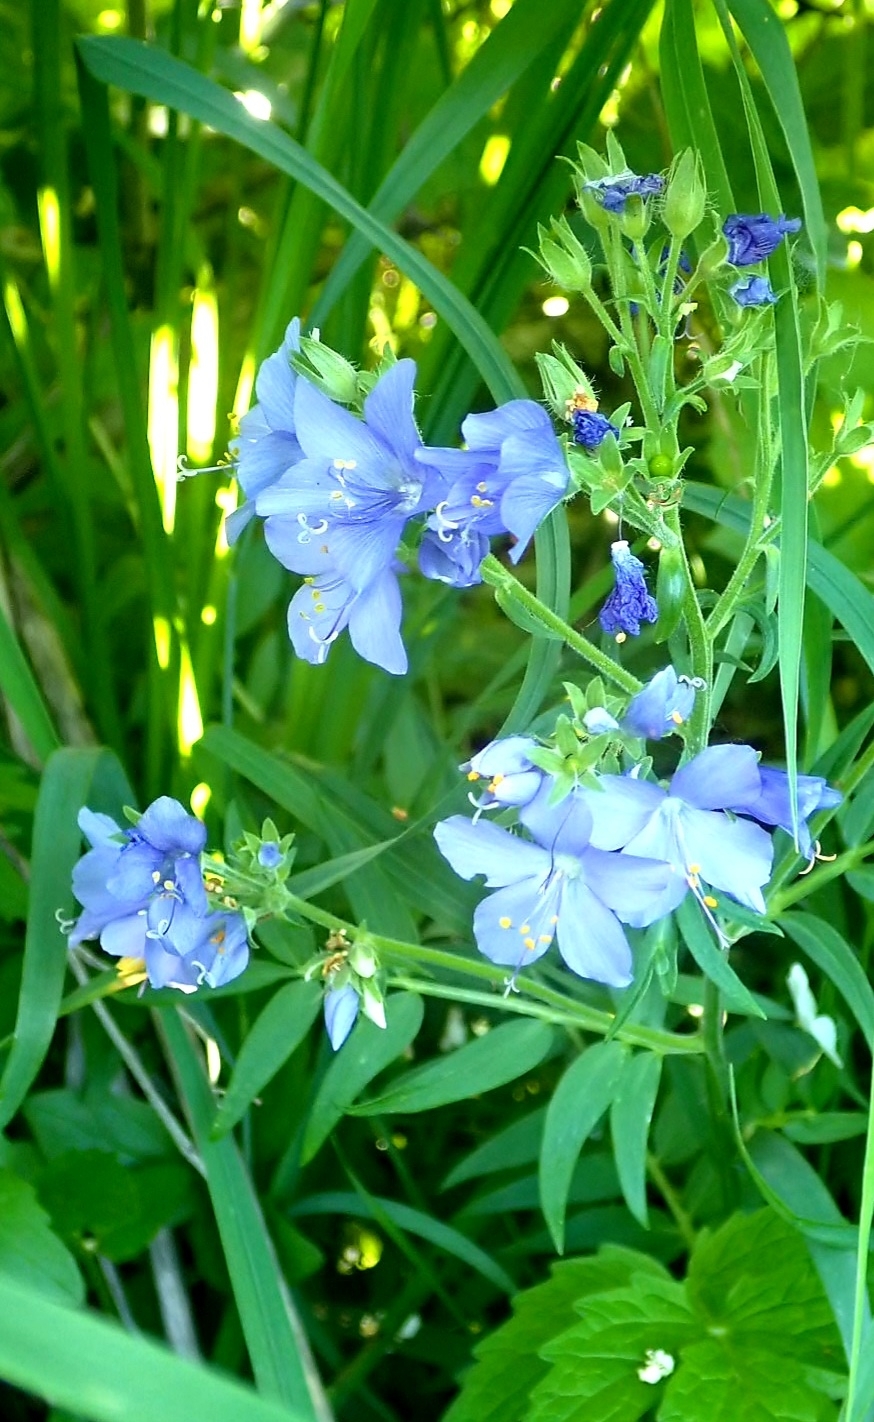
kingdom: Plantae
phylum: Tracheophyta
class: Magnoliopsida
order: Ericales
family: Polemoniaceae
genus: Polemonium
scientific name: Polemonium caeruleum
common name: Jacob's-ladder
